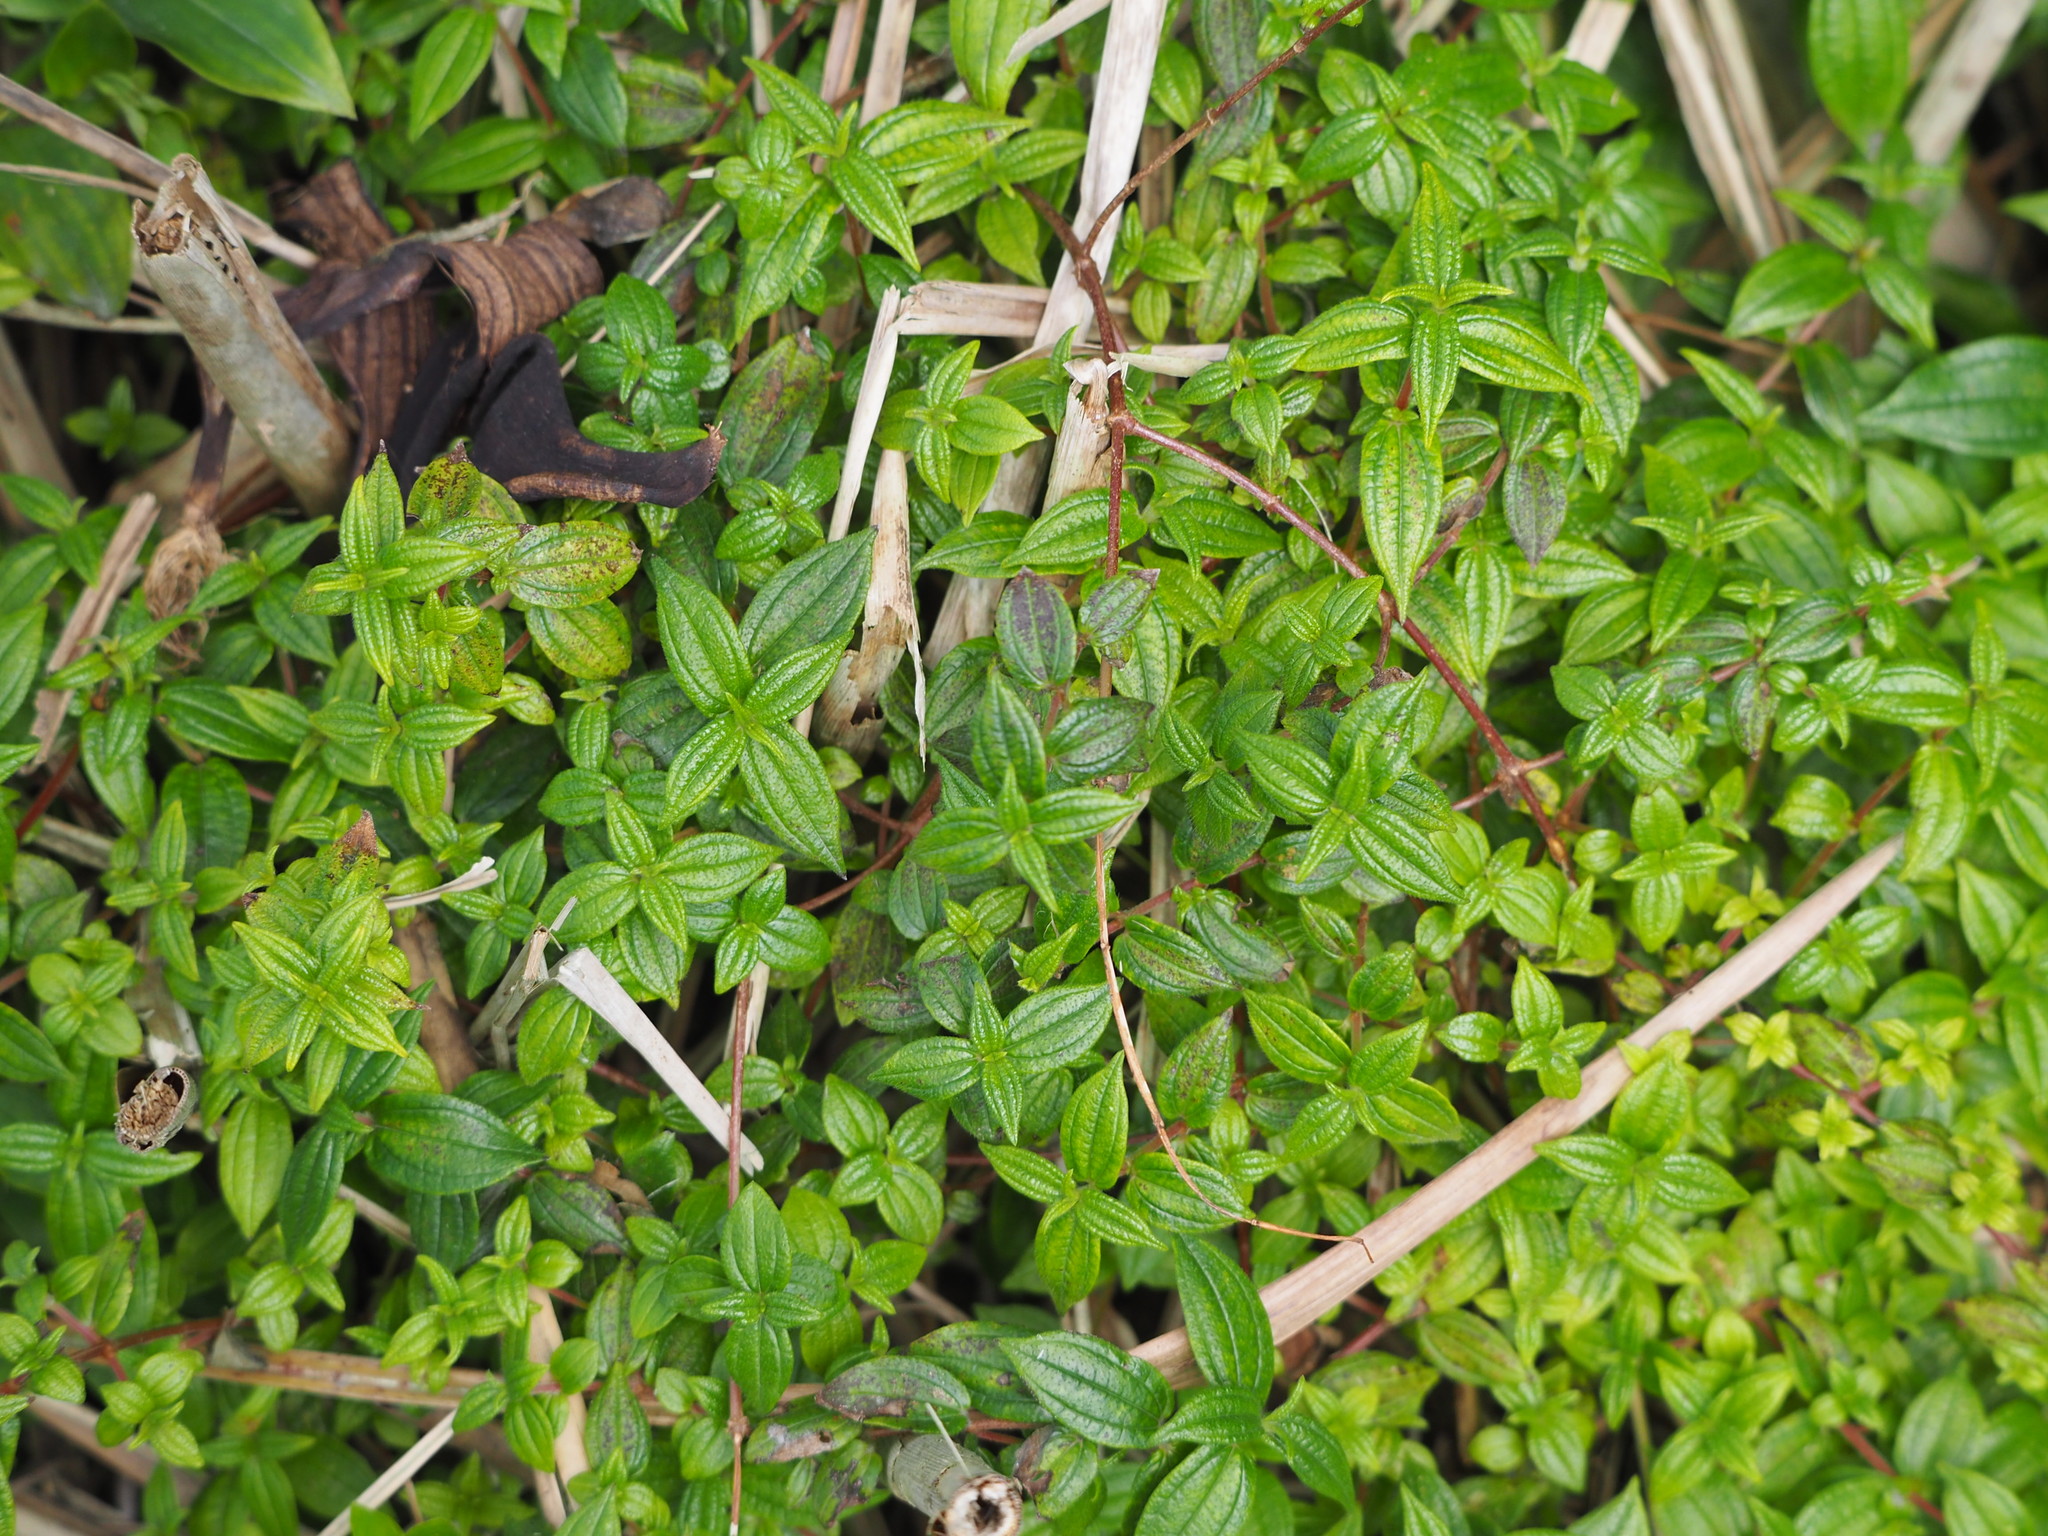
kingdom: Plantae
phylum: Tracheophyta
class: Magnoliopsida
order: Rosales
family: Urticaceae
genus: Gonostegia
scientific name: Gonostegia triandra
